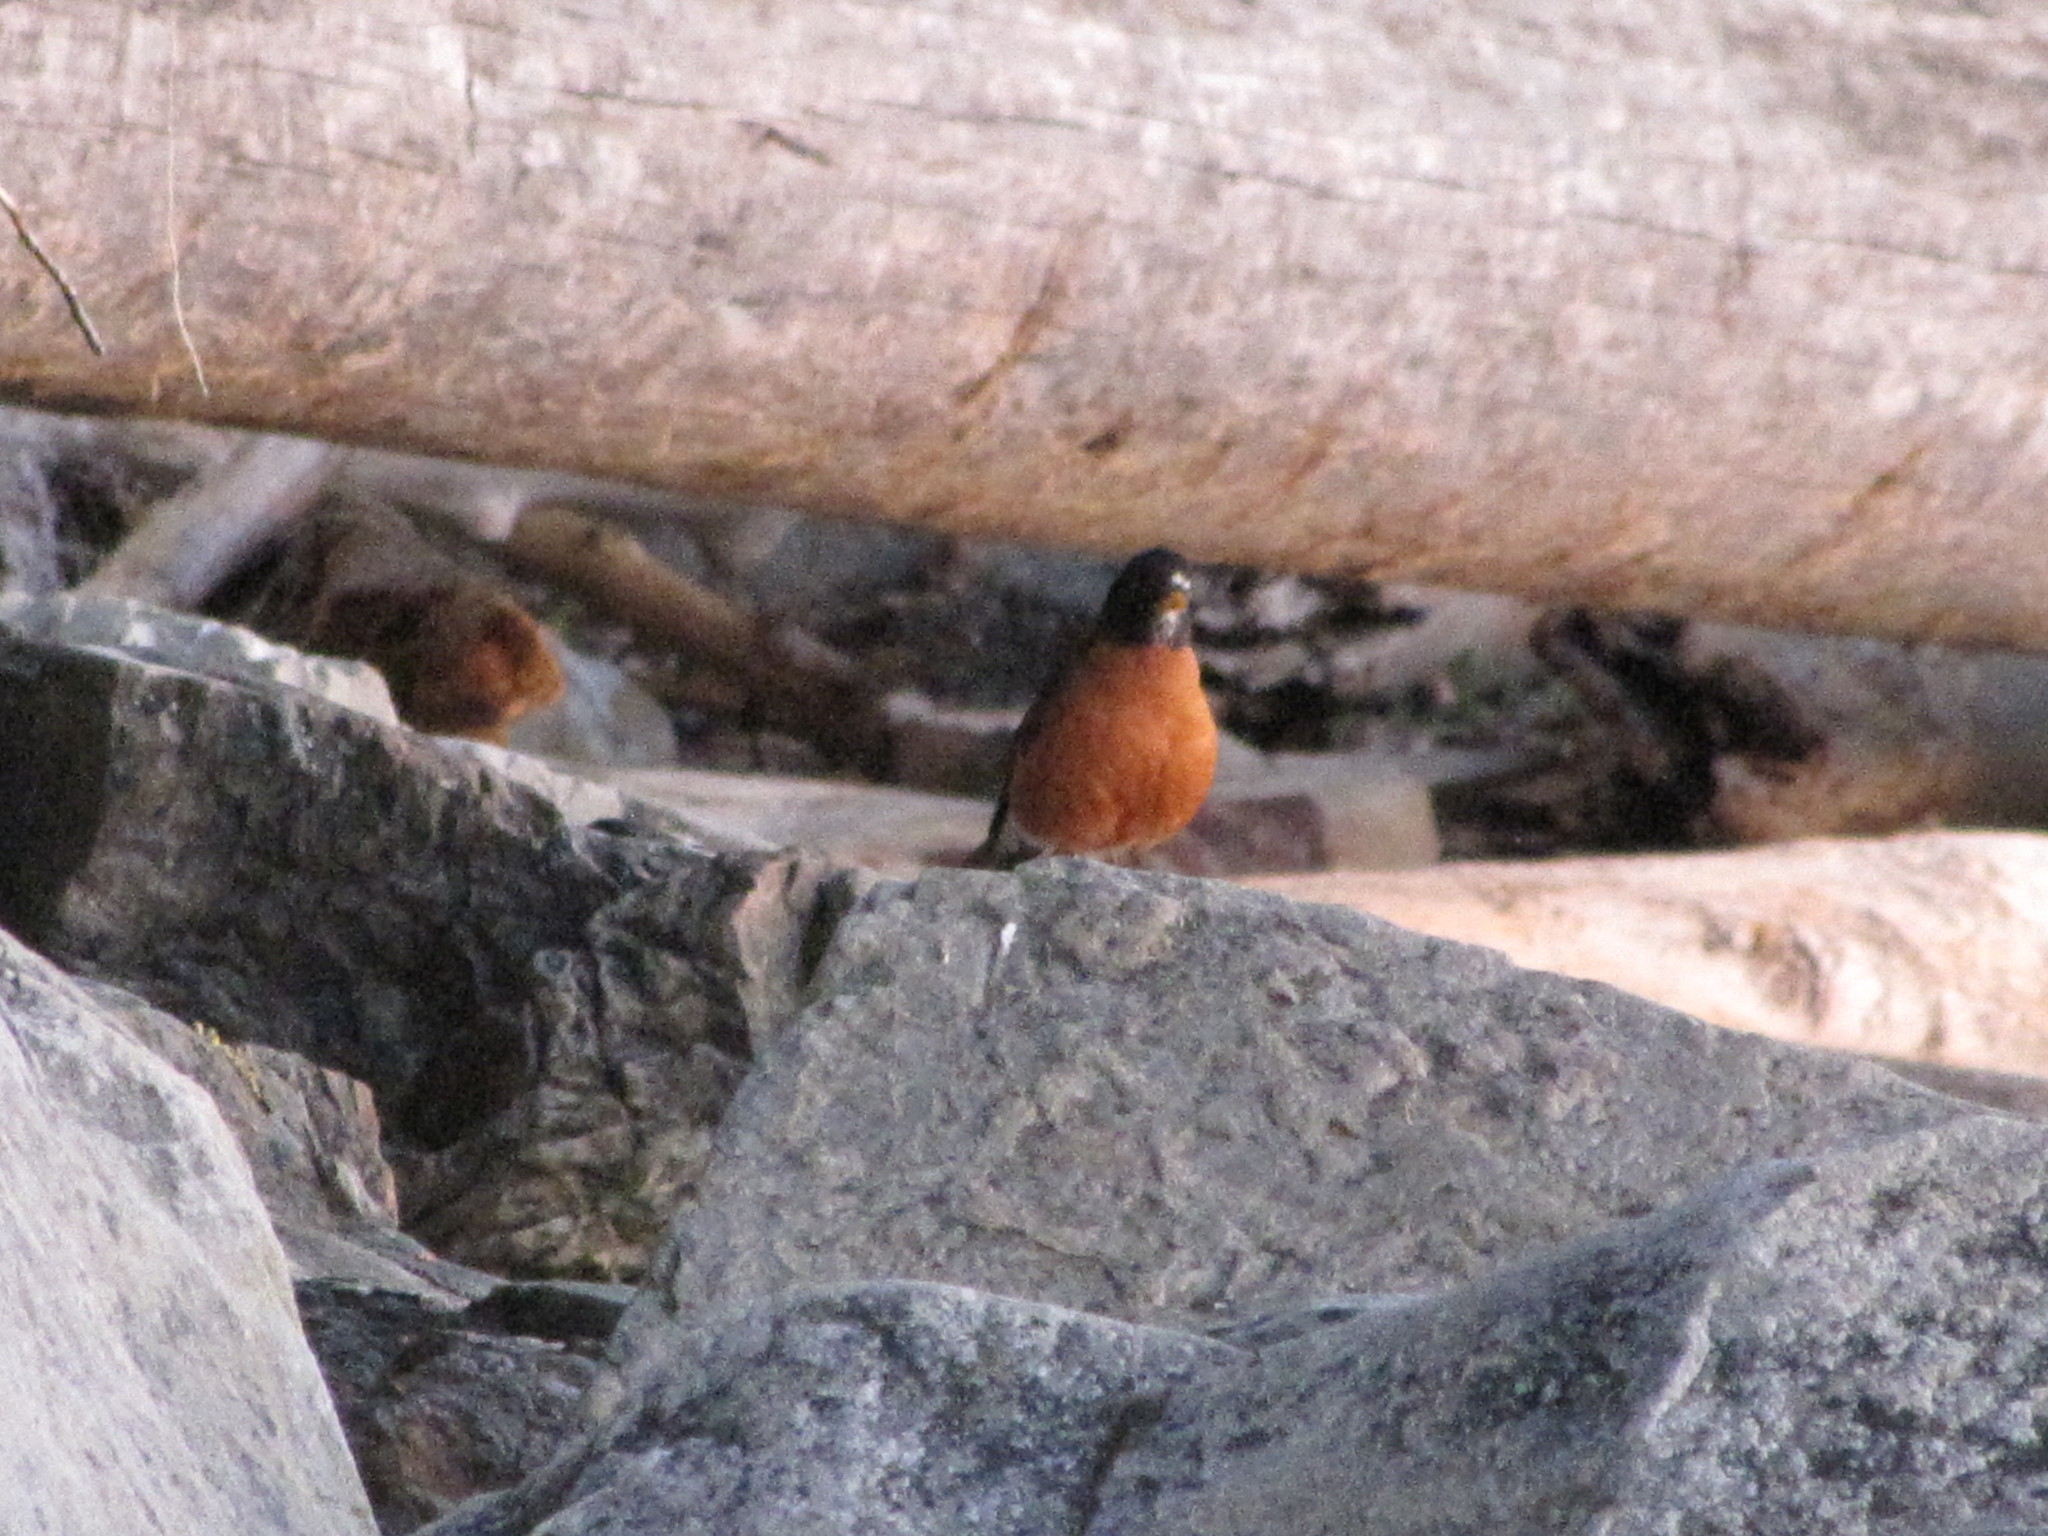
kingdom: Animalia
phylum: Chordata
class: Aves
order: Passeriformes
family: Turdidae
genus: Turdus
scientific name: Turdus migratorius
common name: American robin
